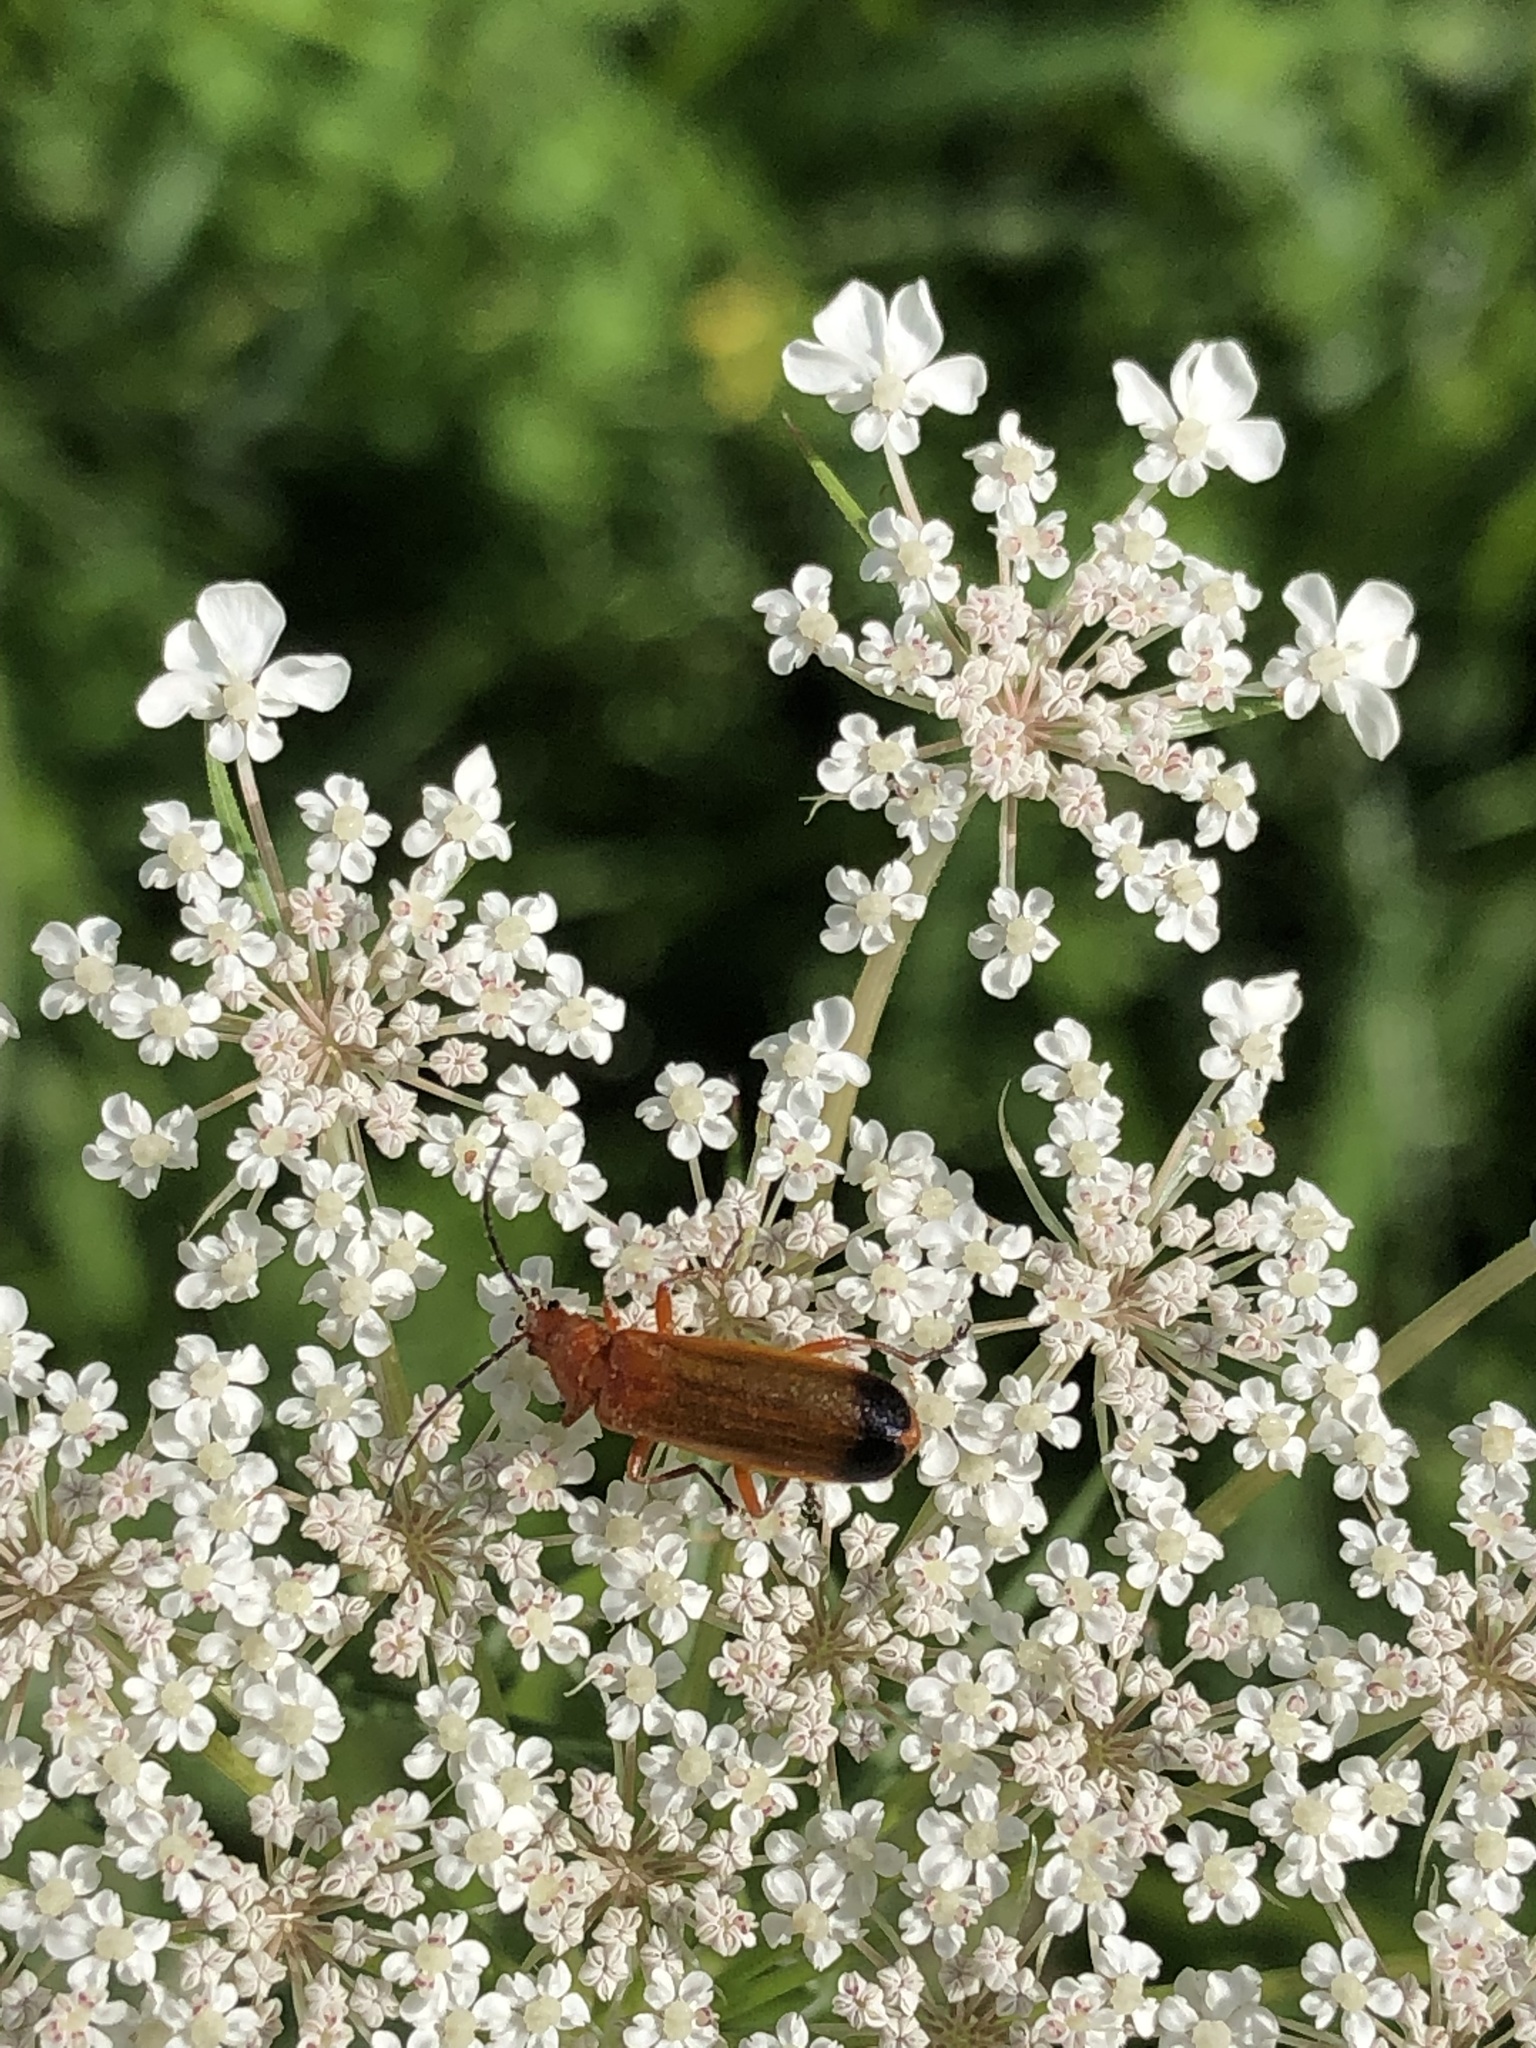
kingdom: Animalia
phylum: Arthropoda
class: Insecta
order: Coleoptera
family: Cantharidae
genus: Rhagonycha
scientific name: Rhagonycha fulva
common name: Common red soldier beetle
